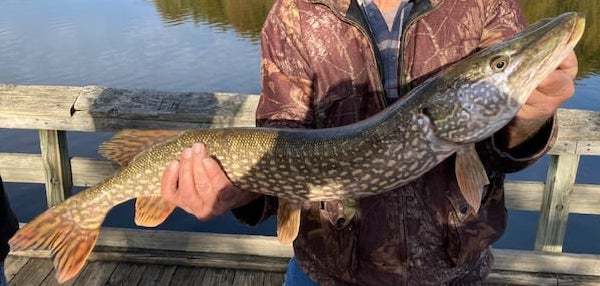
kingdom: Animalia
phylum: Chordata
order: Esociformes
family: Esocidae
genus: Esox
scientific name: Esox lucius
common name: Northern pike
